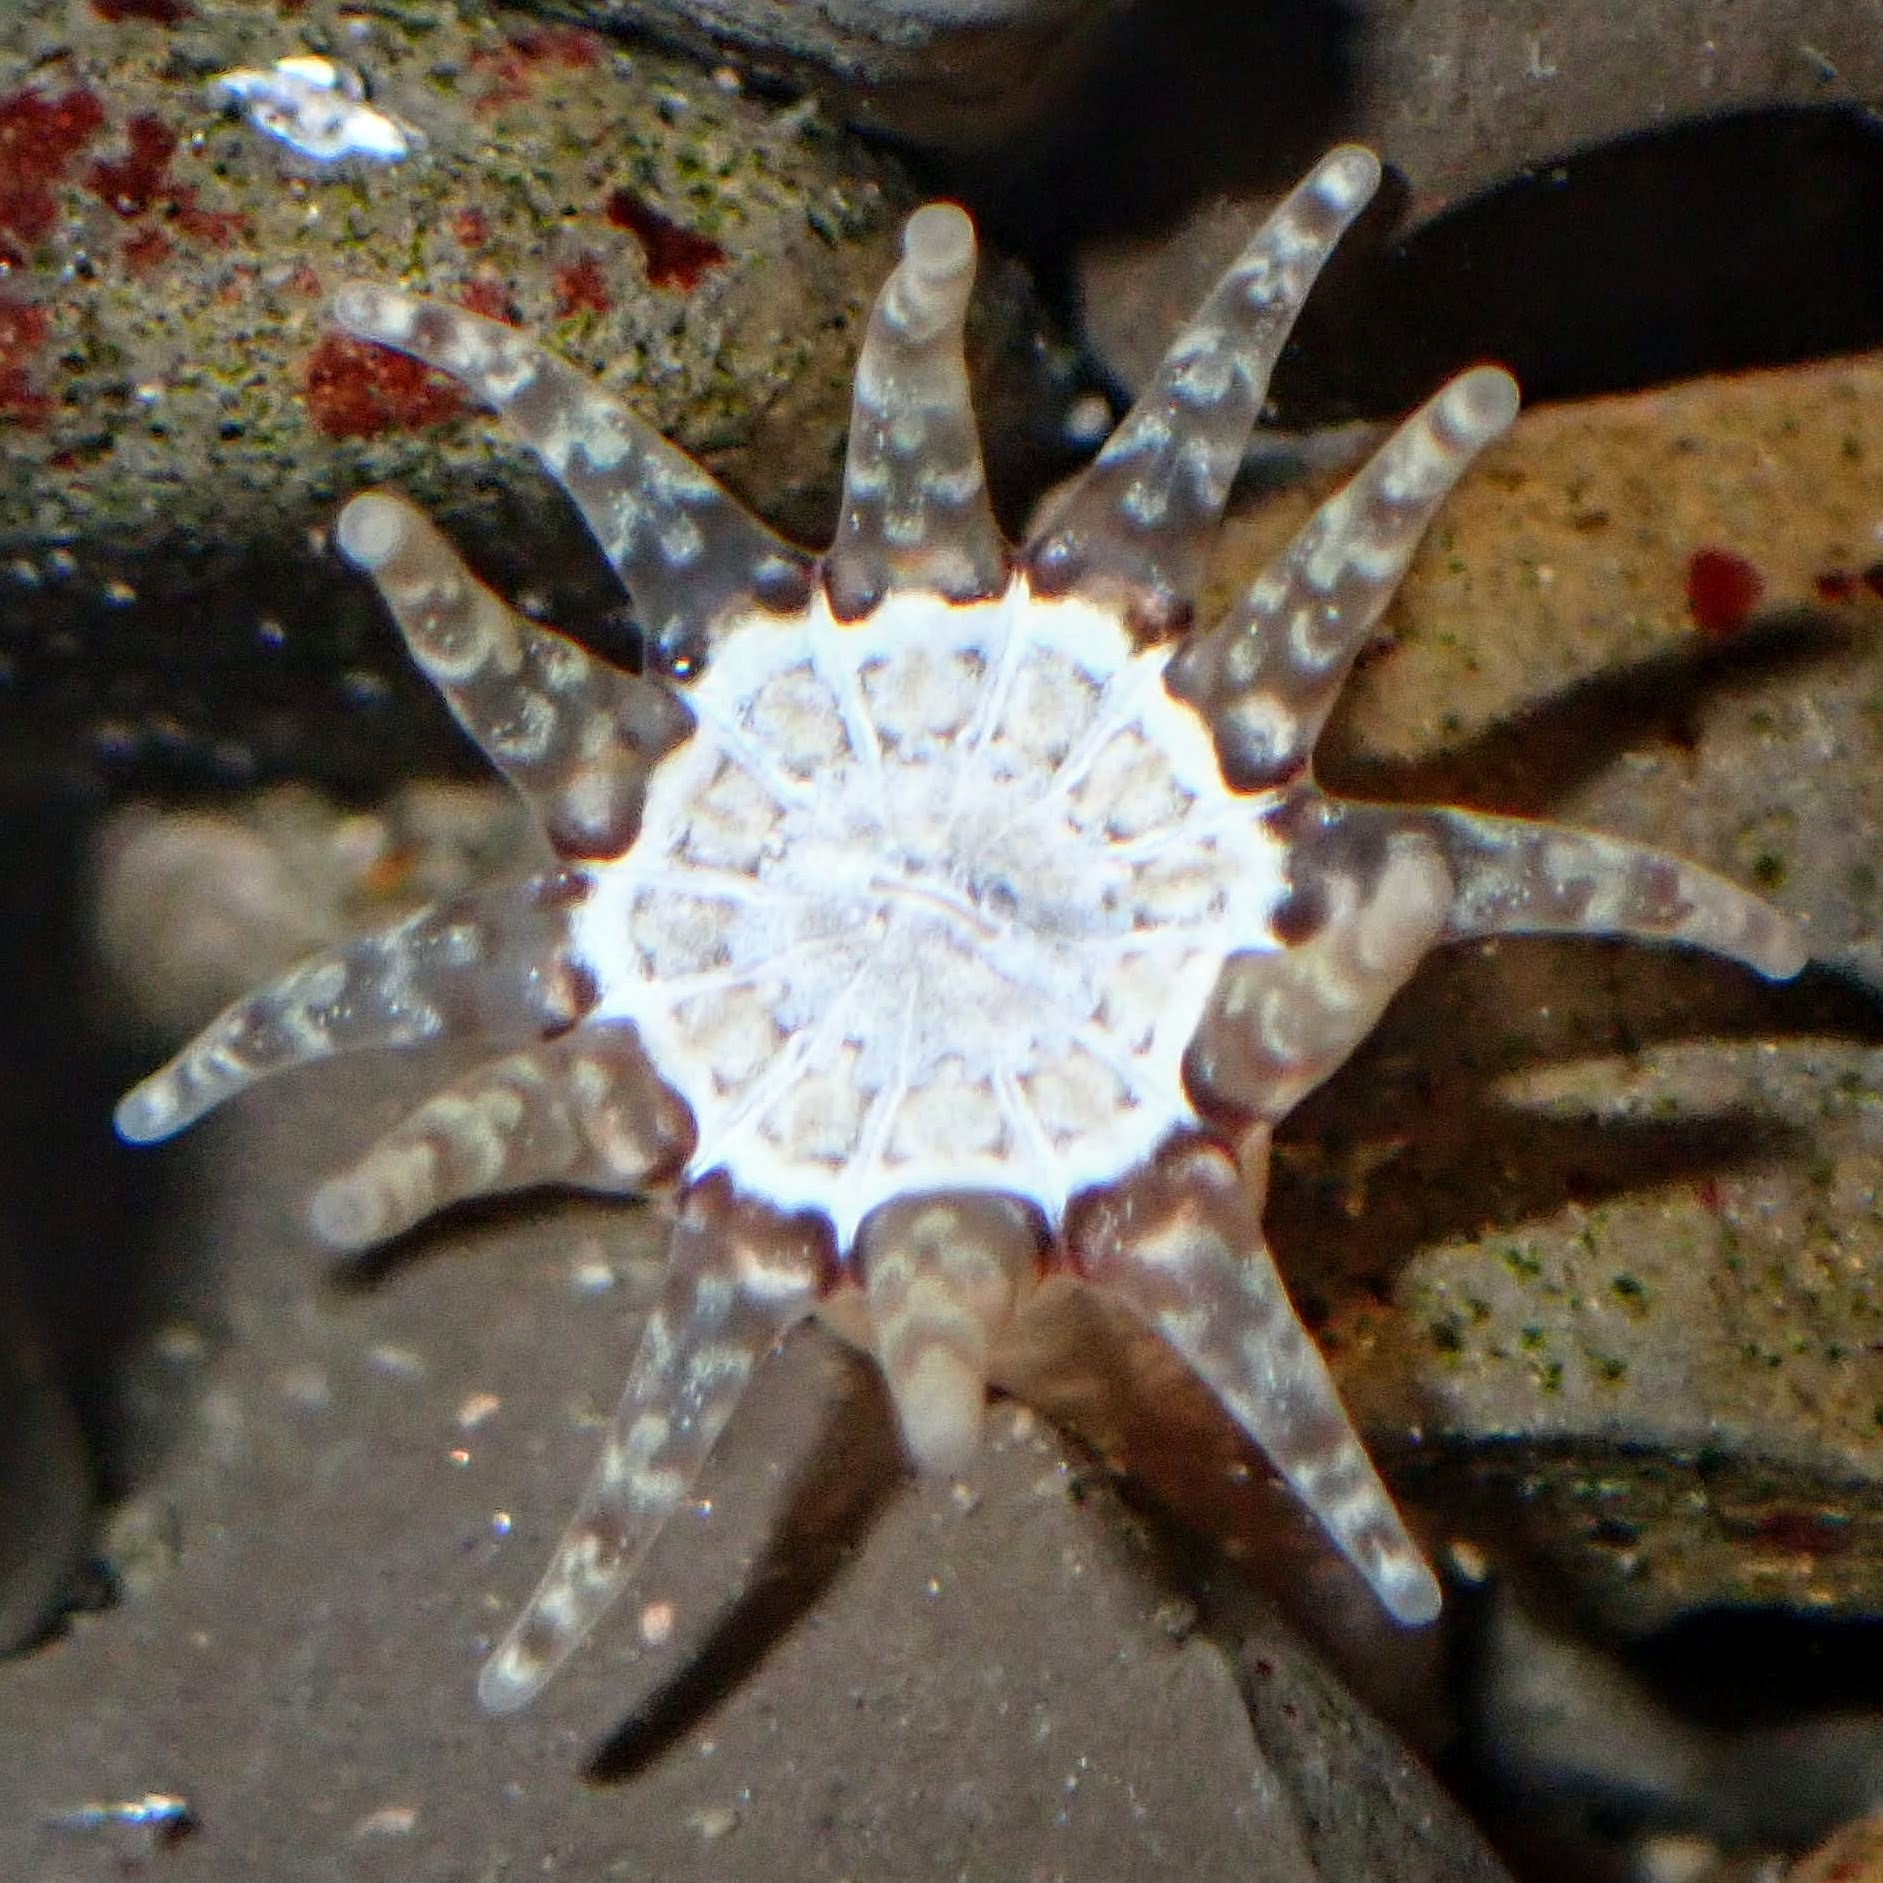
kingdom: Animalia
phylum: Cnidaria
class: Anthozoa
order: Actiniaria
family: Halcampidae
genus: Halcampa
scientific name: Halcampa crypta
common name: Cryptic burrowing anemone
